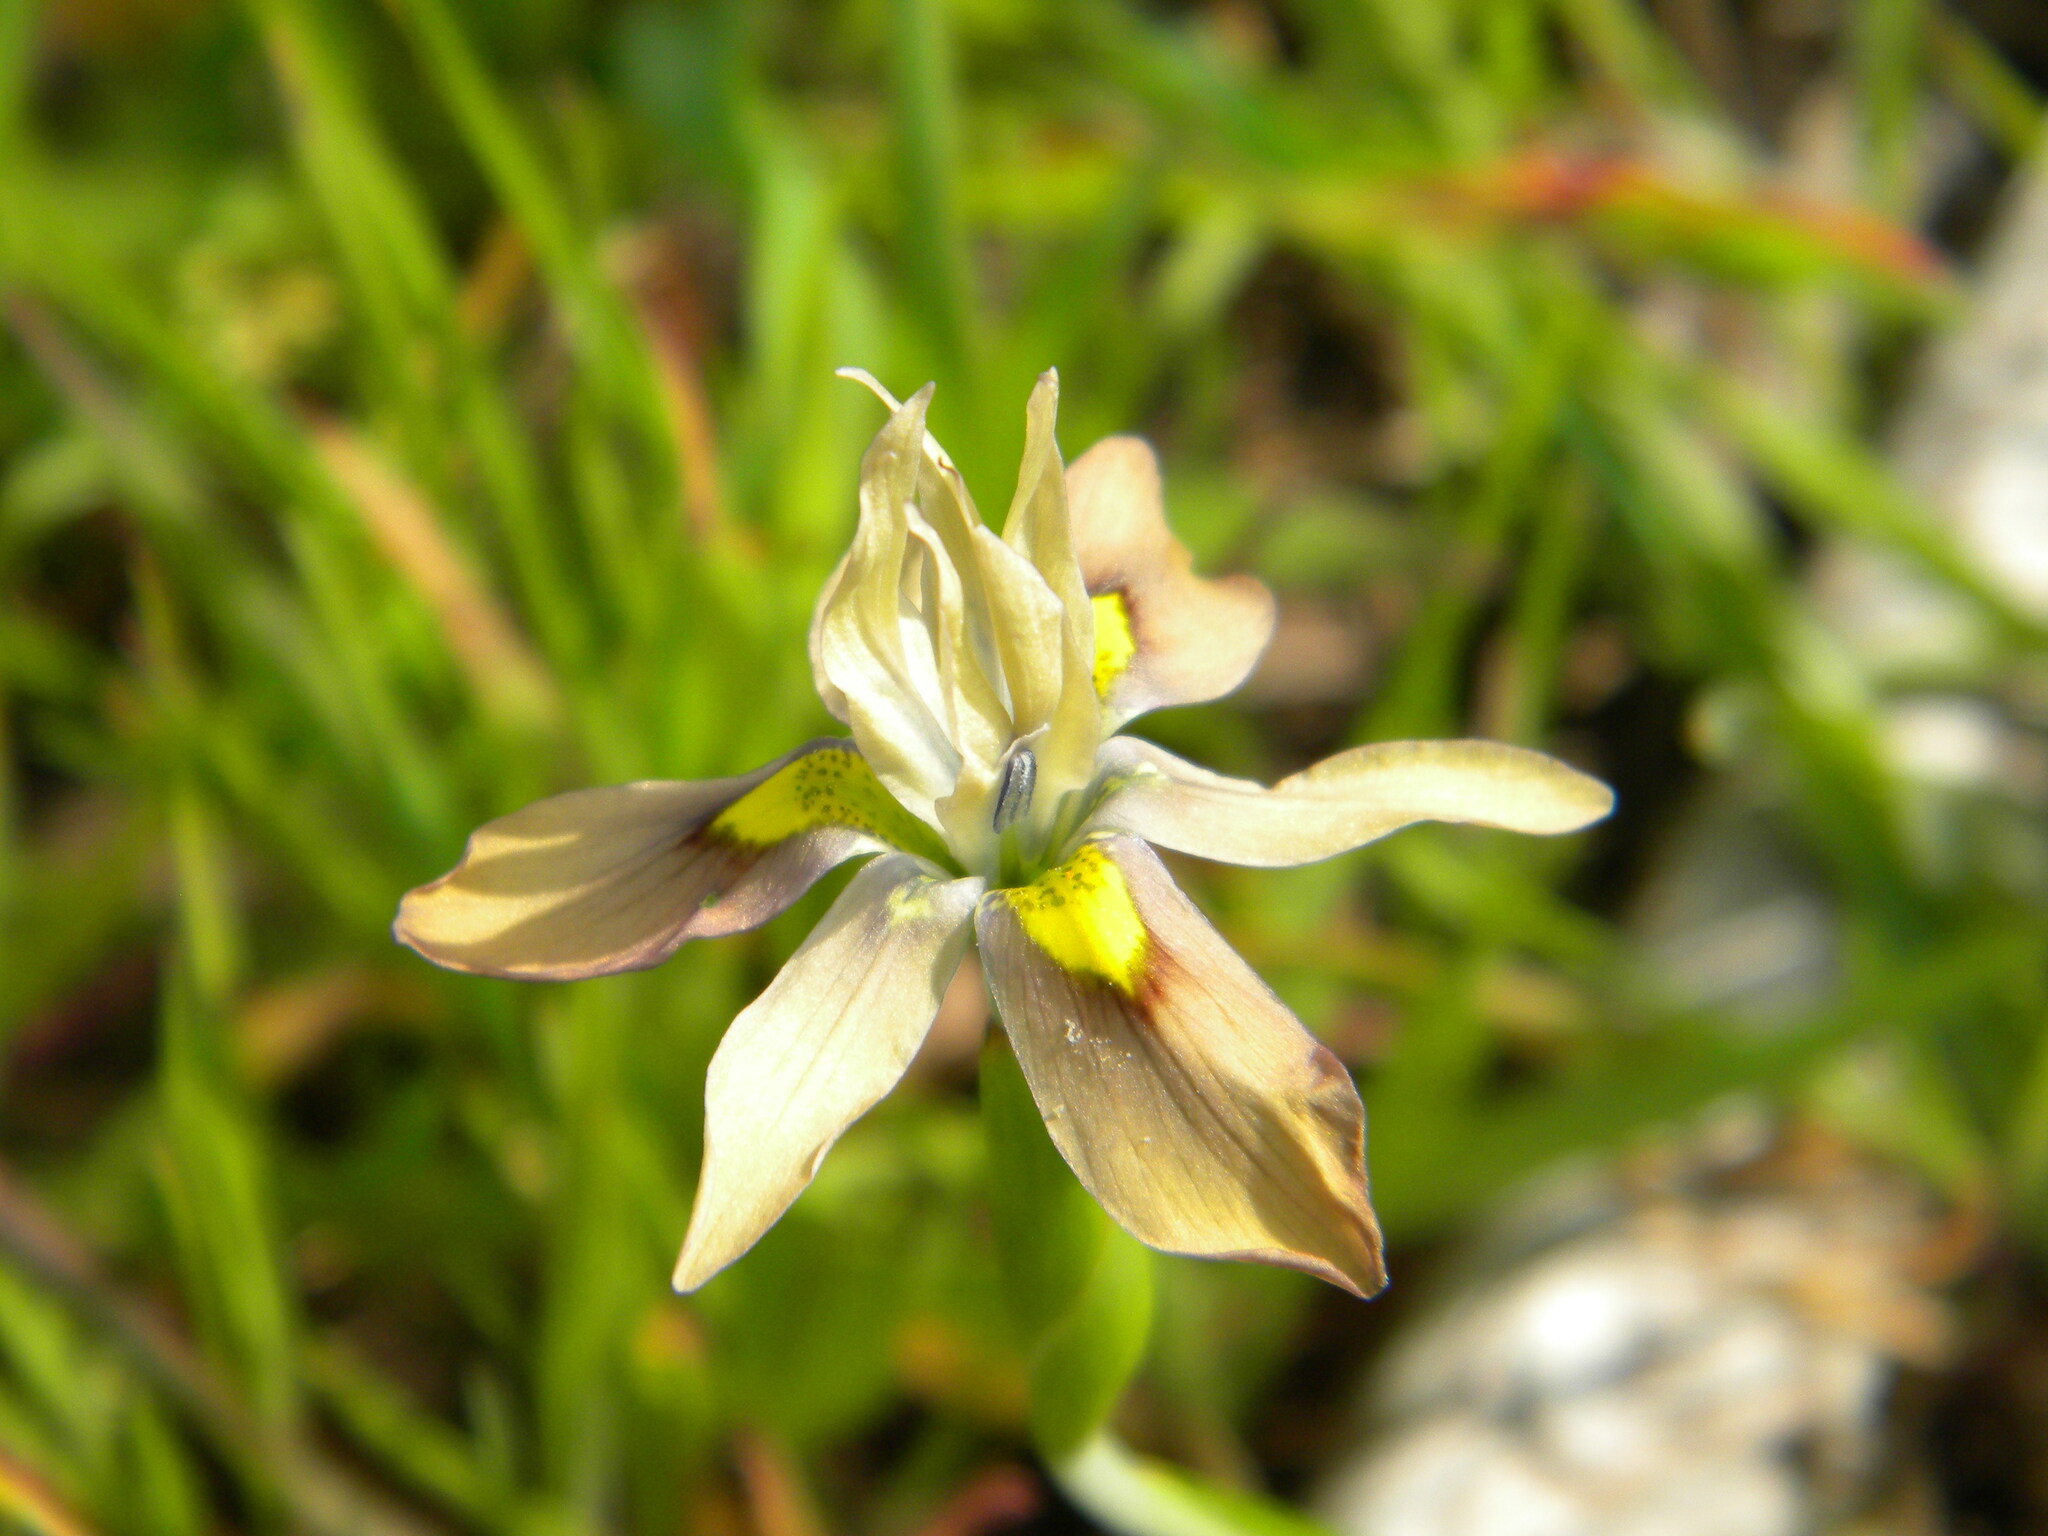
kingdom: Plantae
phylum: Tracheophyta
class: Liliopsida
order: Asparagales
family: Iridaceae
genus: Moraea
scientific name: Moraea vegeta
